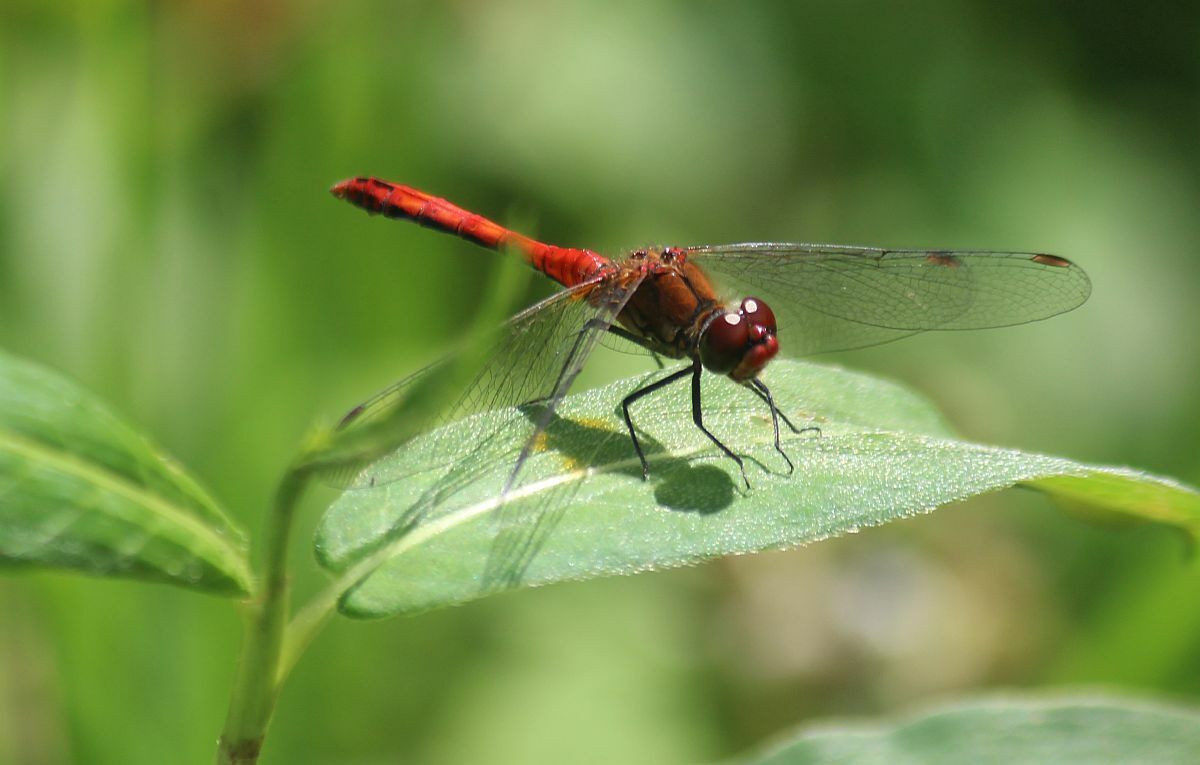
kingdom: Animalia
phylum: Arthropoda
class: Insecta
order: Odonata
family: Libellulidae
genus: Sympetrum
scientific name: Sympetrum sanguineum
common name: Ruddy darter
